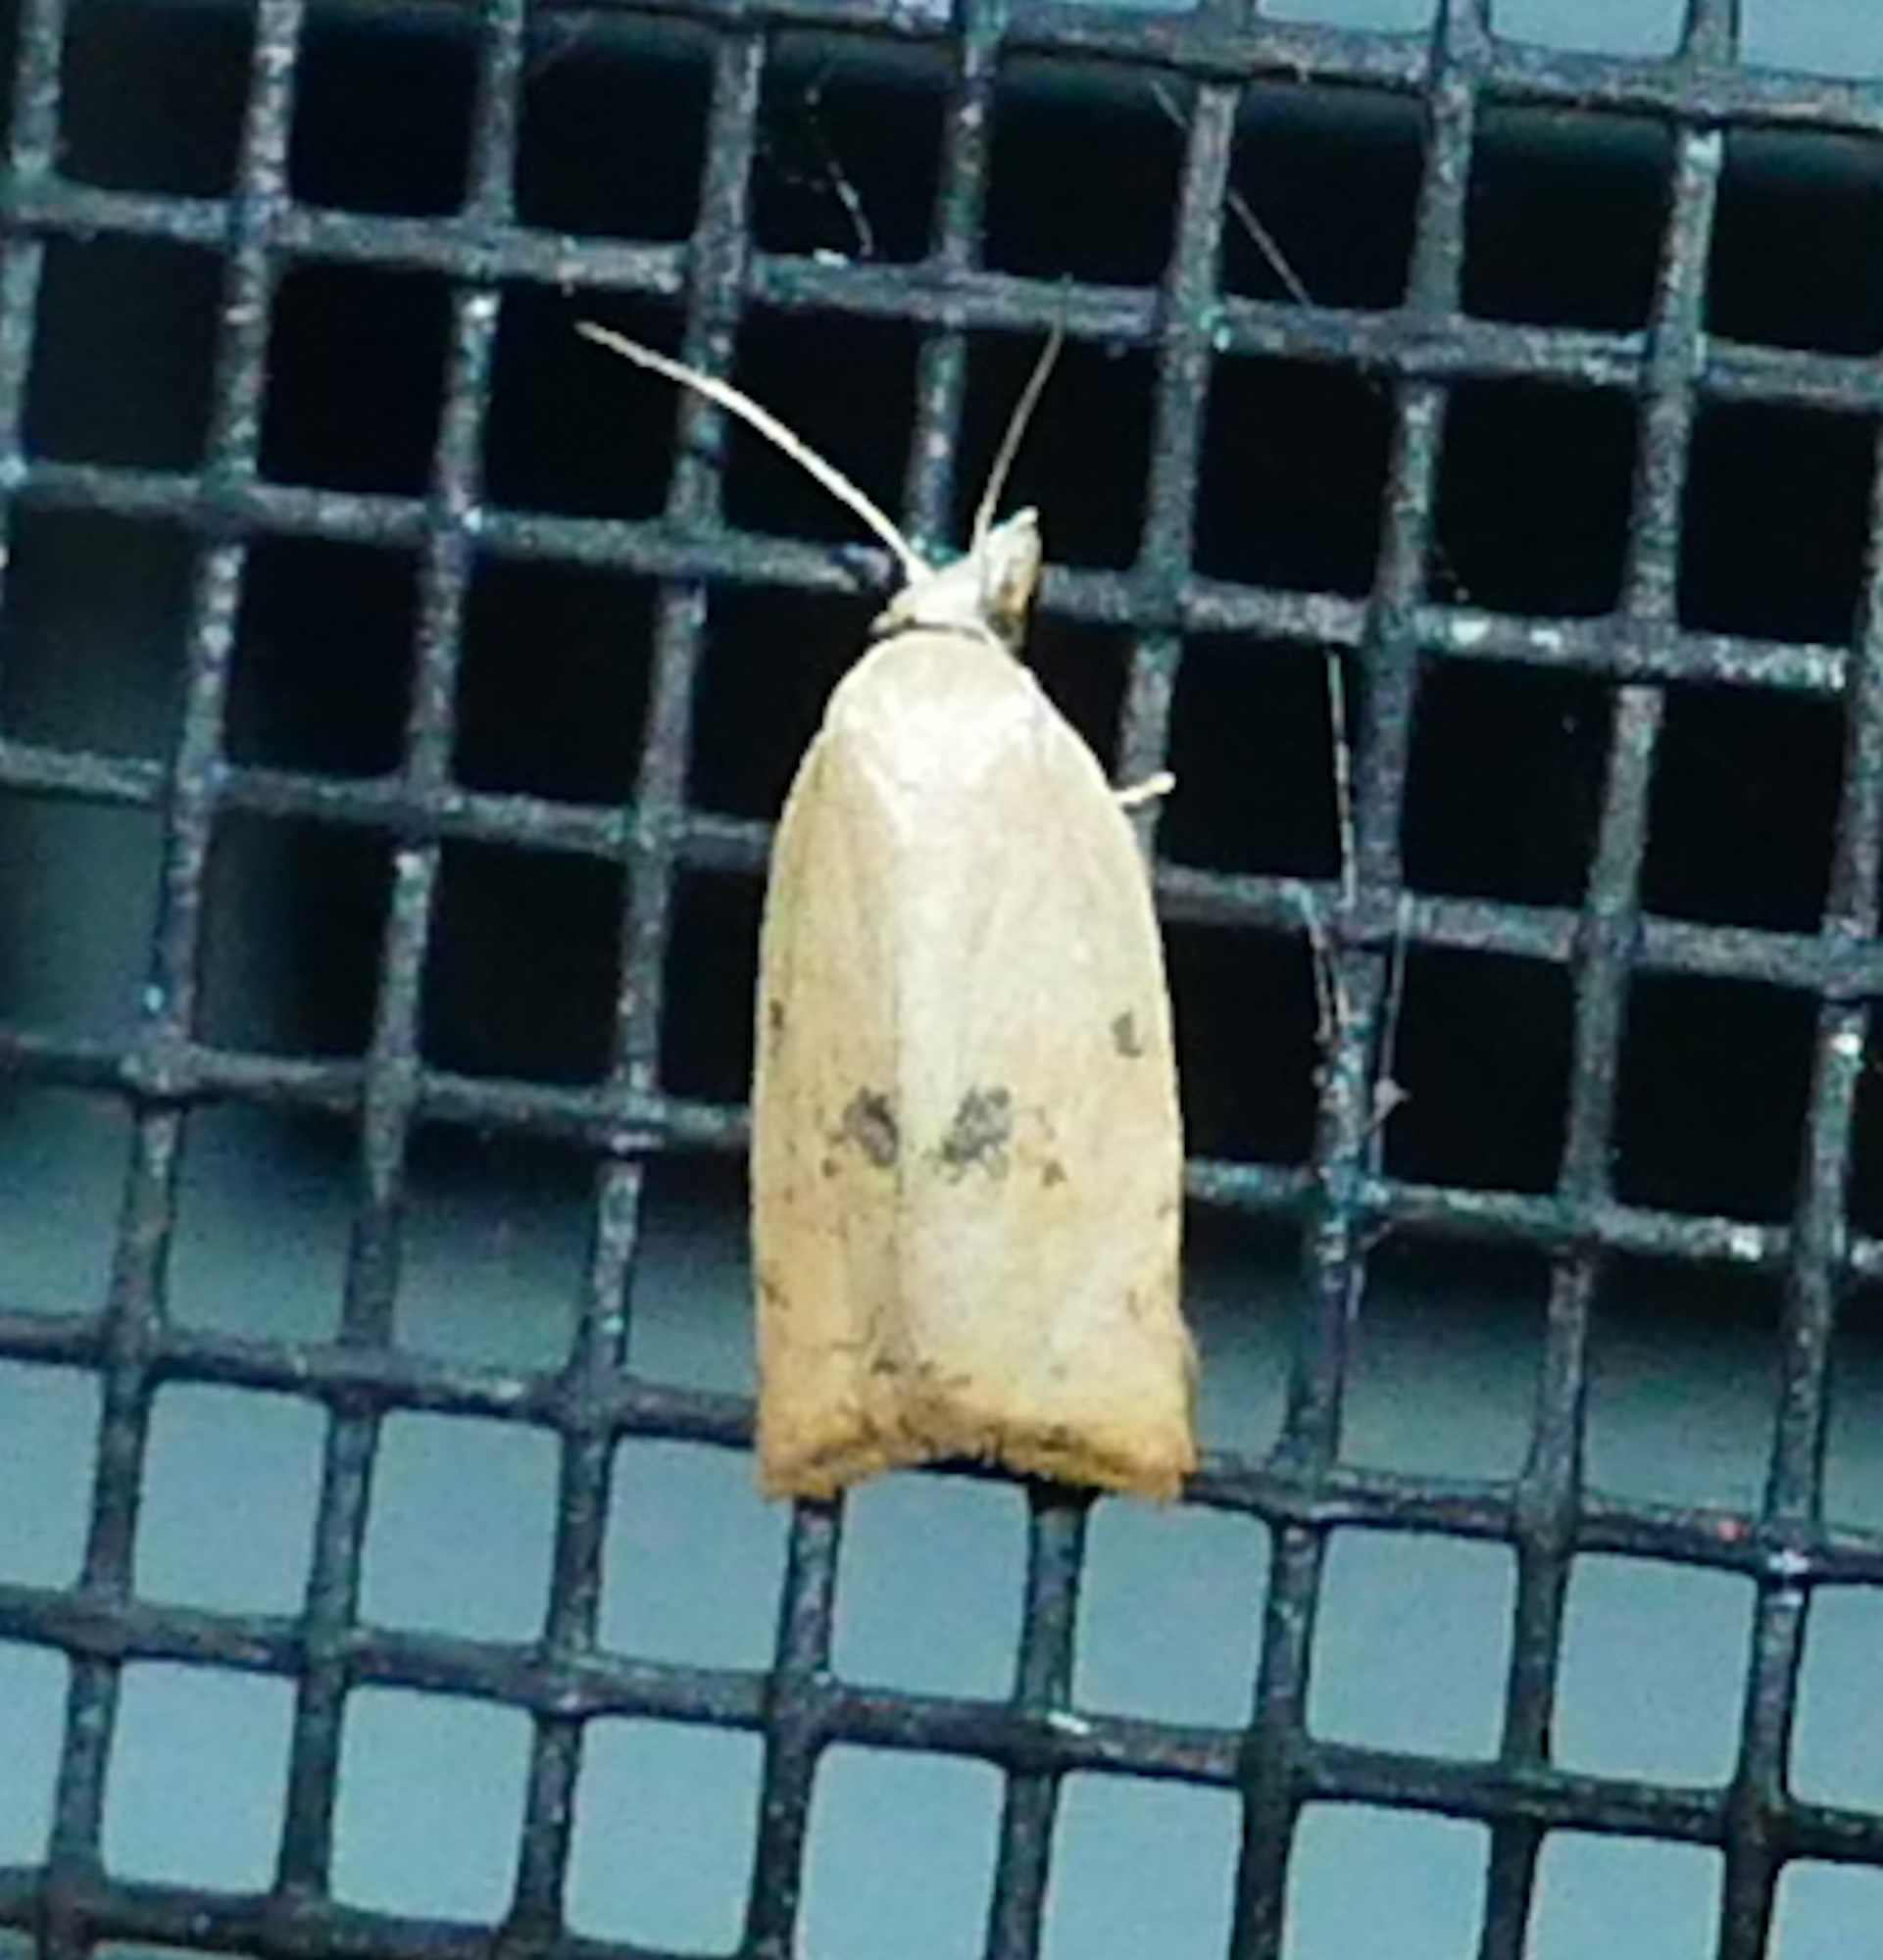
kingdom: Animalia
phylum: Arthropoda
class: Insecta
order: Lepidoptera
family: Tortricidae
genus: Sparganothoides
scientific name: Sparganothoides lentiginosana
